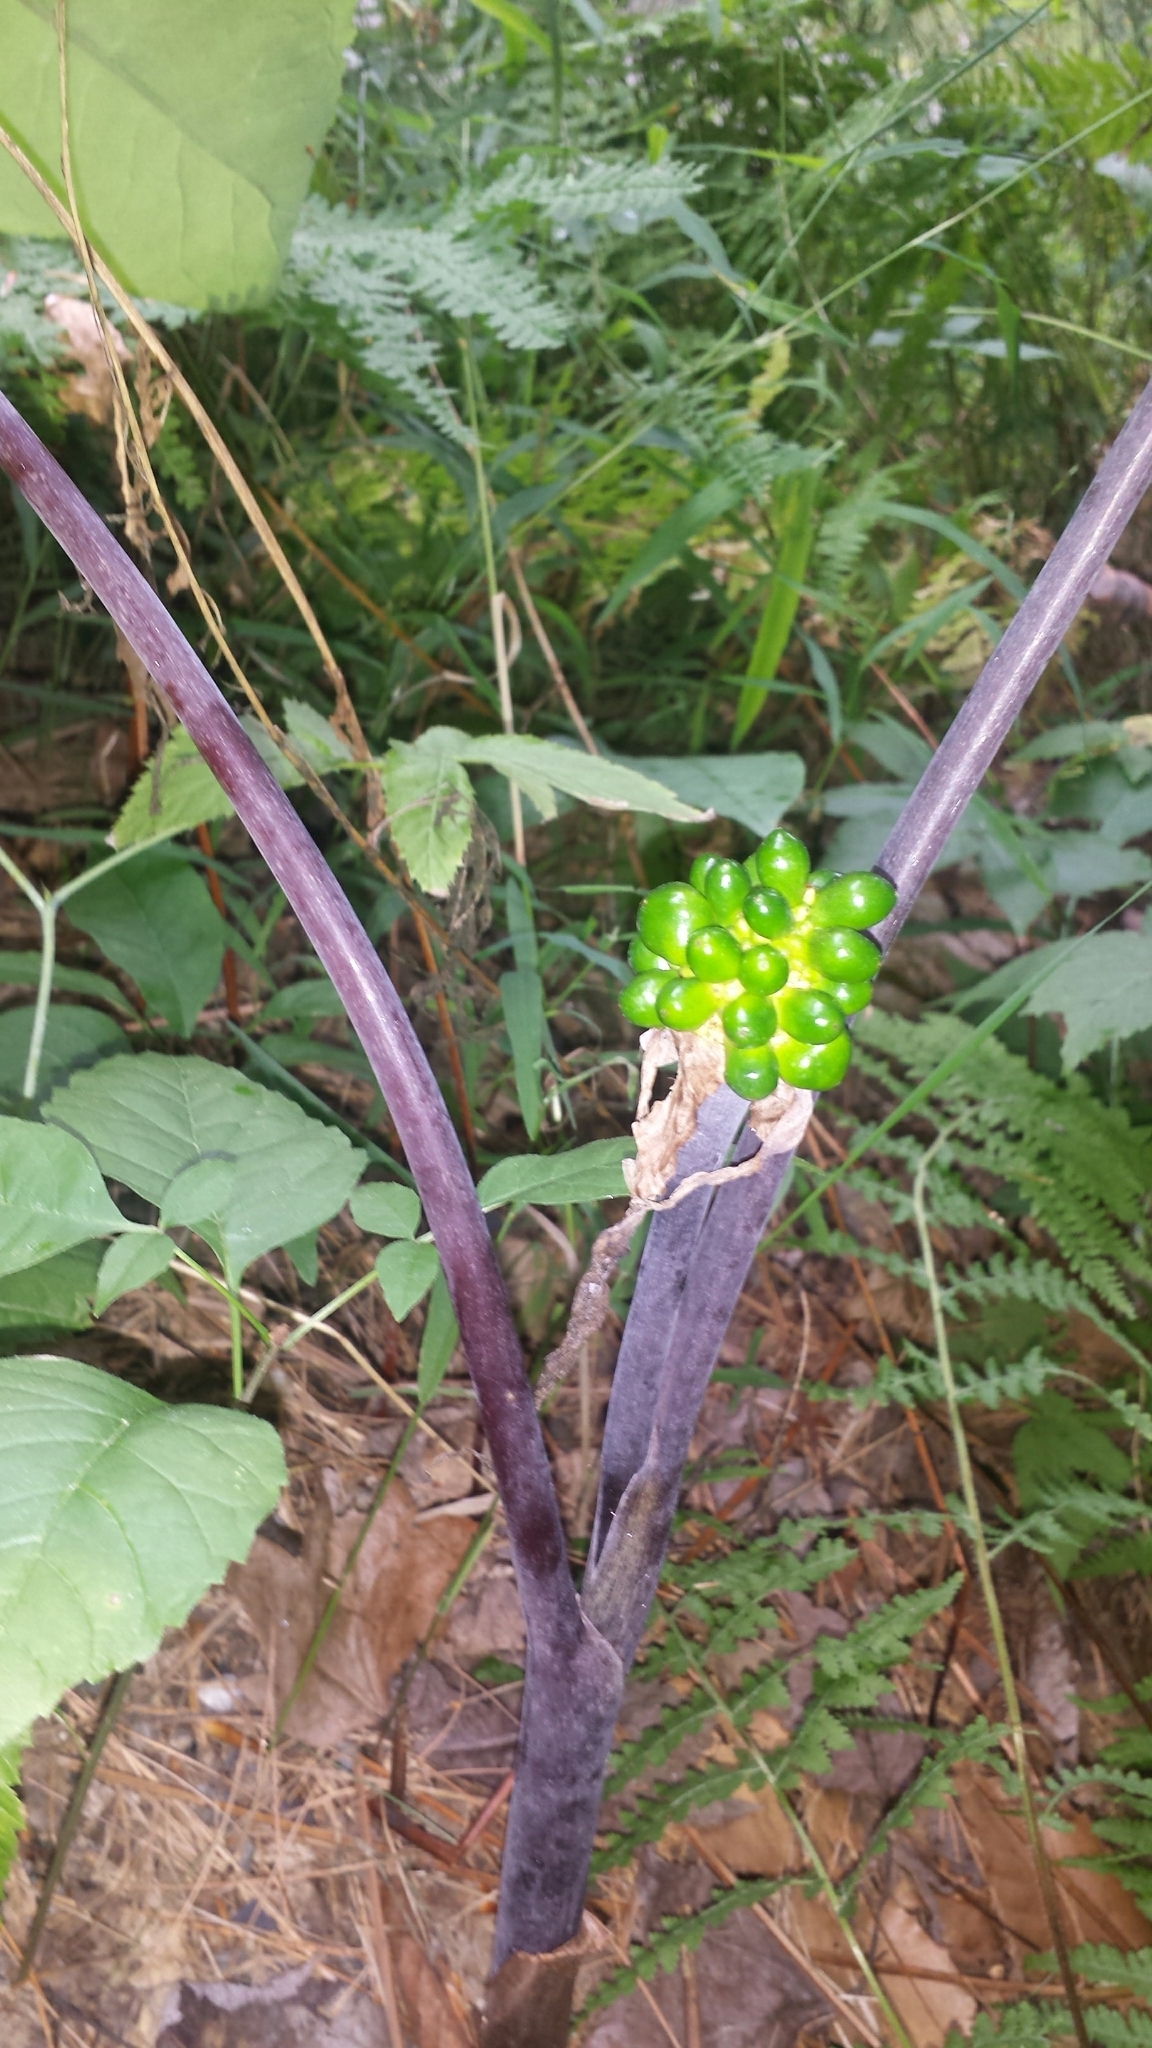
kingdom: Plantae
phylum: Tracheophyta
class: Liliopsida
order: Alismatales
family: Araceae
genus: Arisaema
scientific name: Arisaema triphyllum
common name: Jack-in-the-pulpit
